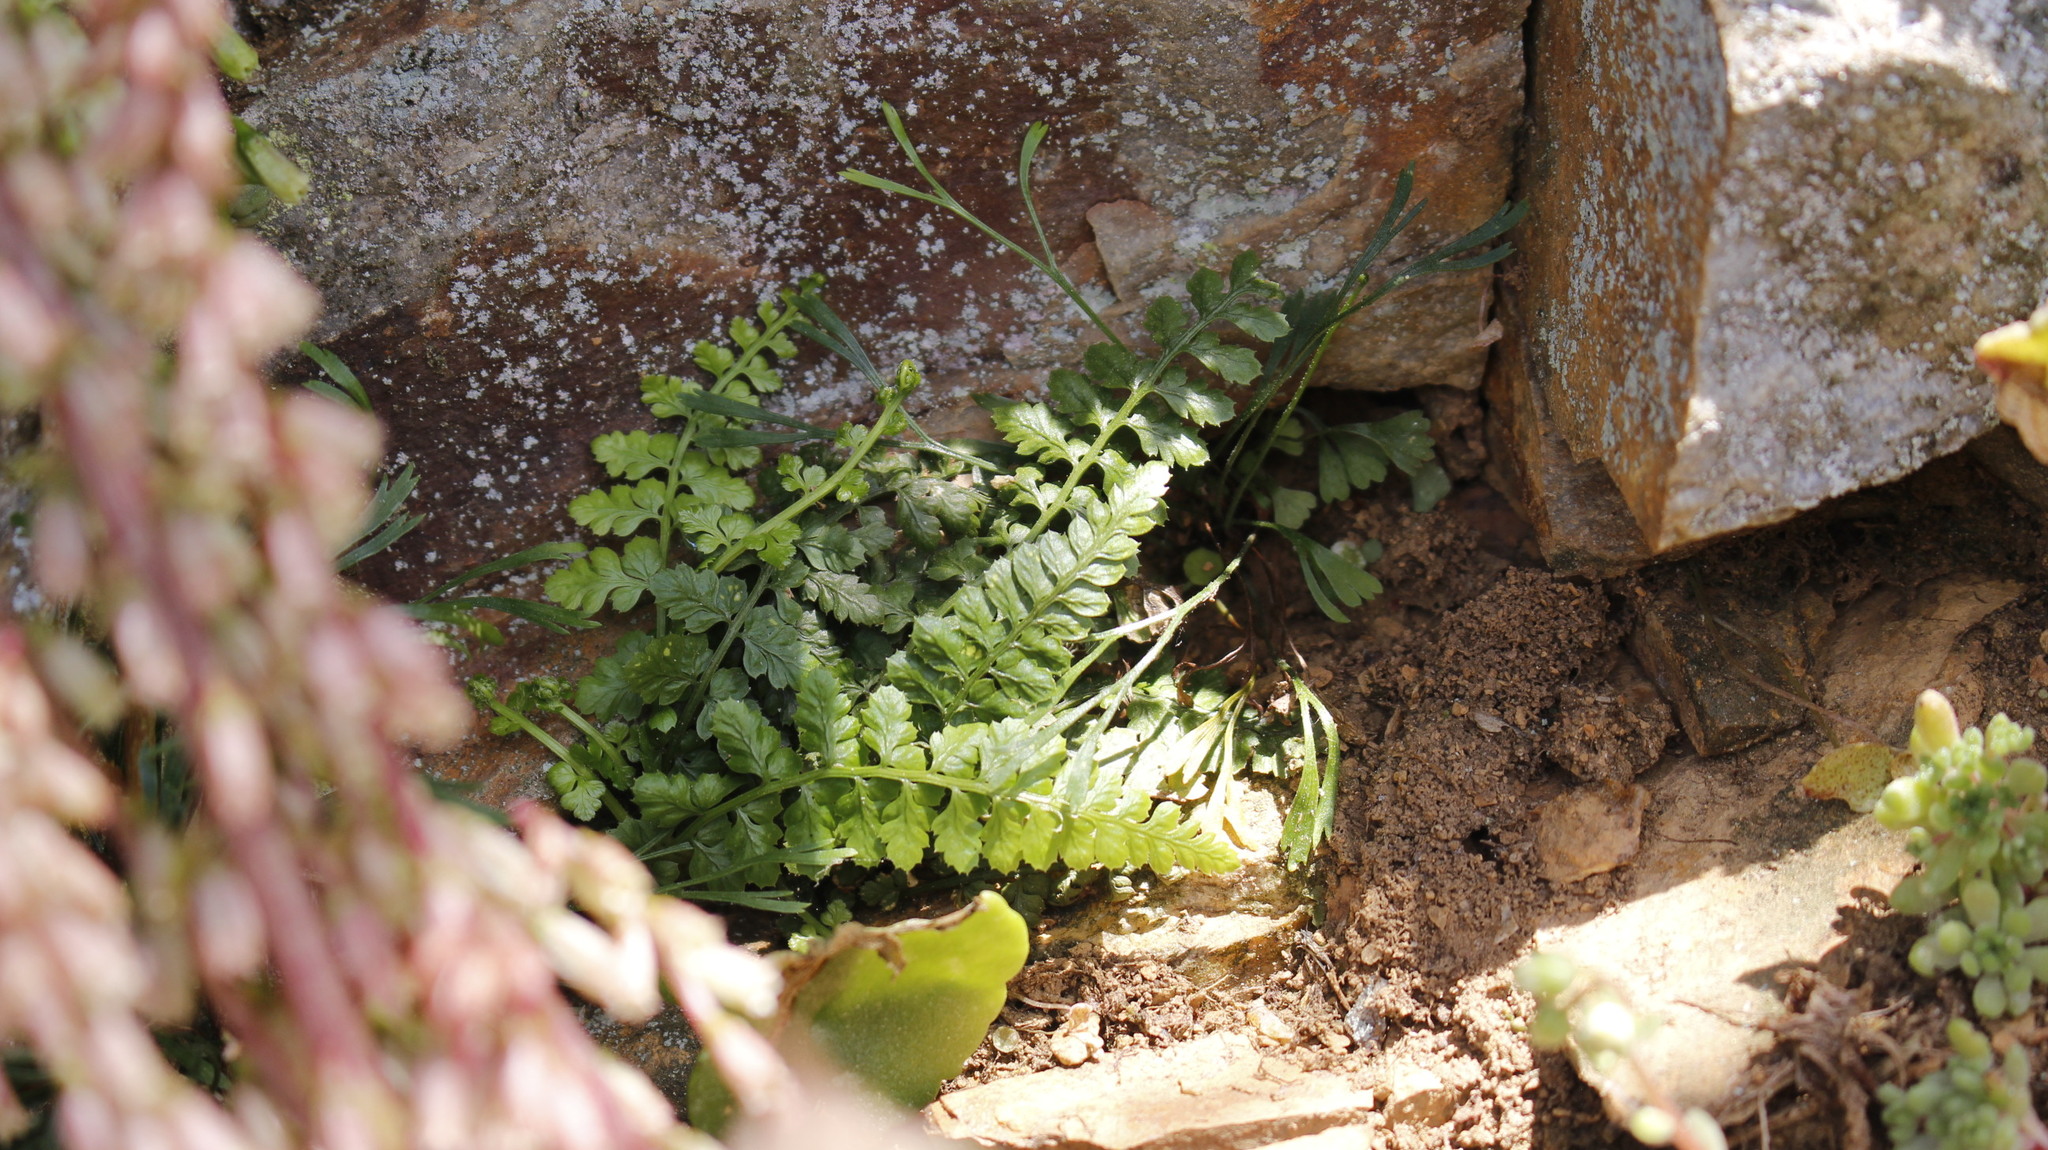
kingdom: Plantae
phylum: Tracheophyta
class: Polypodiopsida
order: Polypodiales
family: Aspleniaceae
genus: Asplenium
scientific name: Asplenium foreziense
